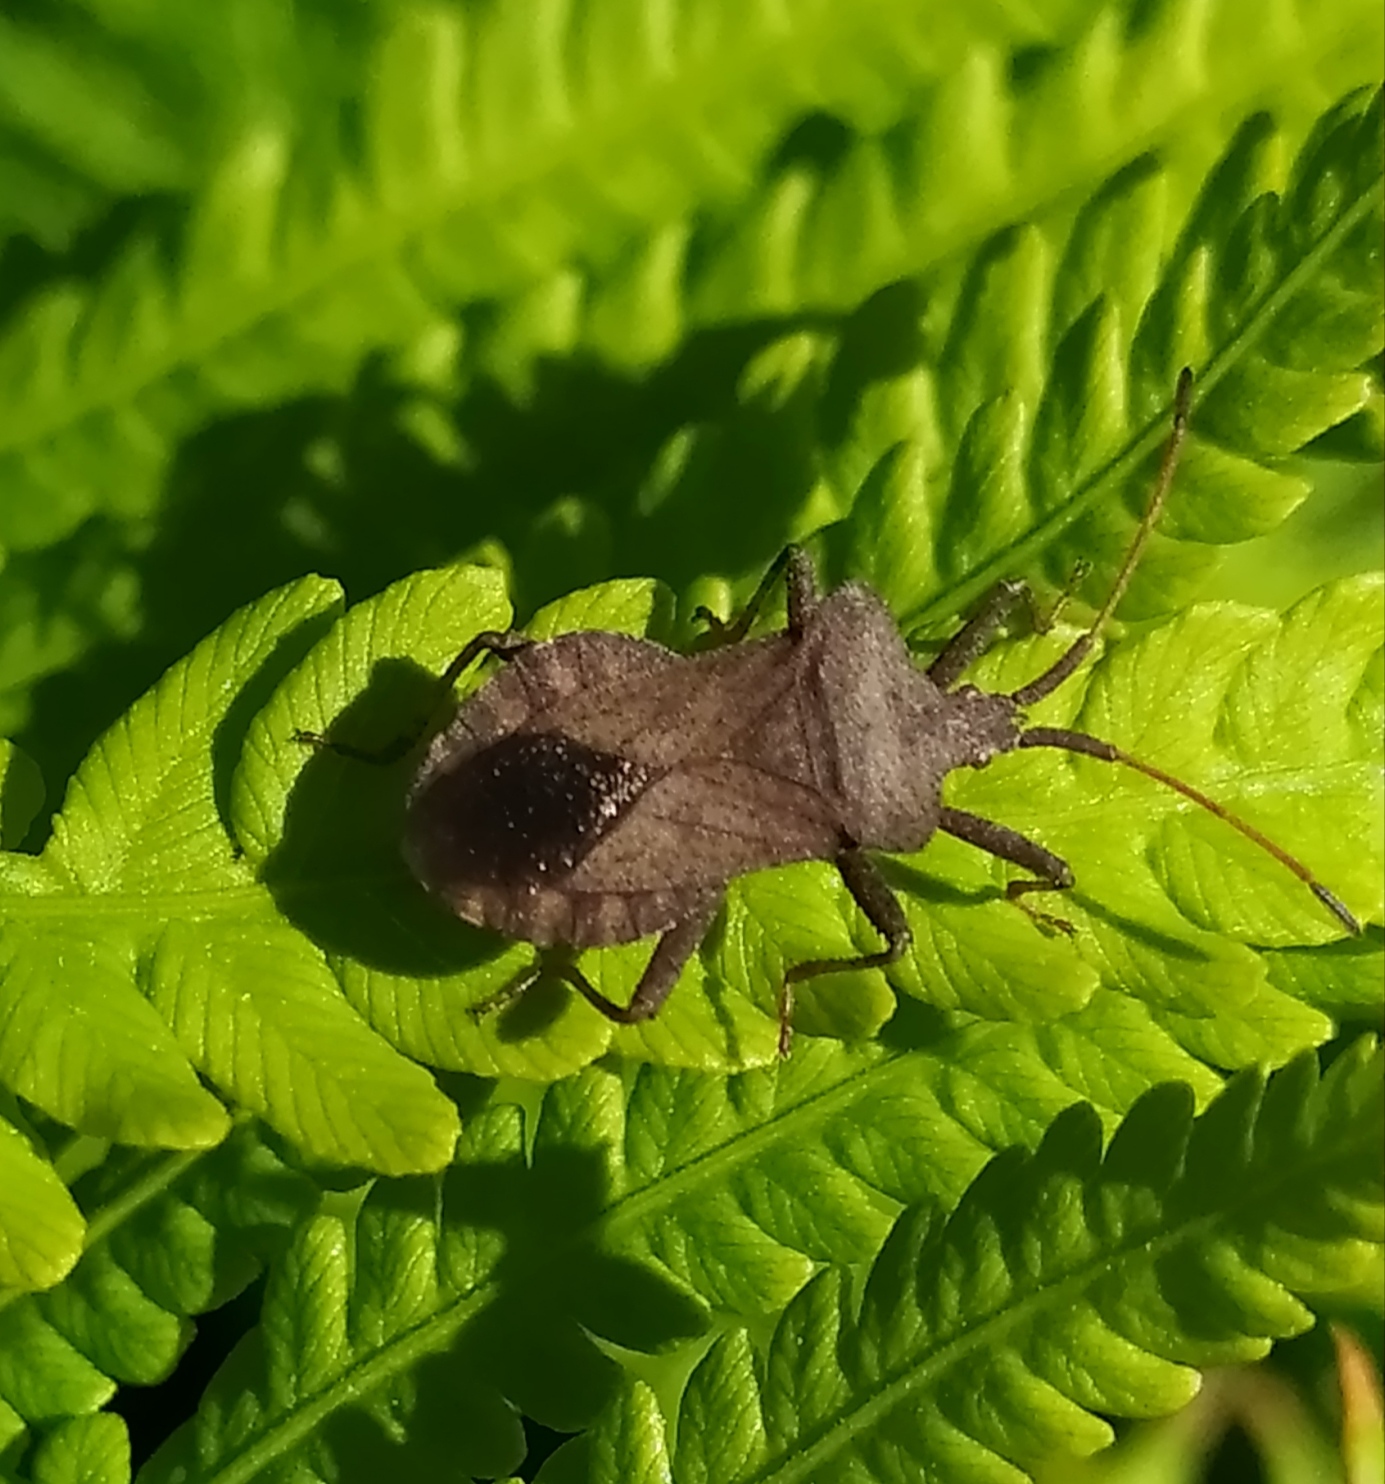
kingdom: Animalia
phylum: Arthropoda
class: Insecta
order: Hemiptera
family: Coreidae
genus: Coreus
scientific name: Coreus marginatus
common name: Dock bug
